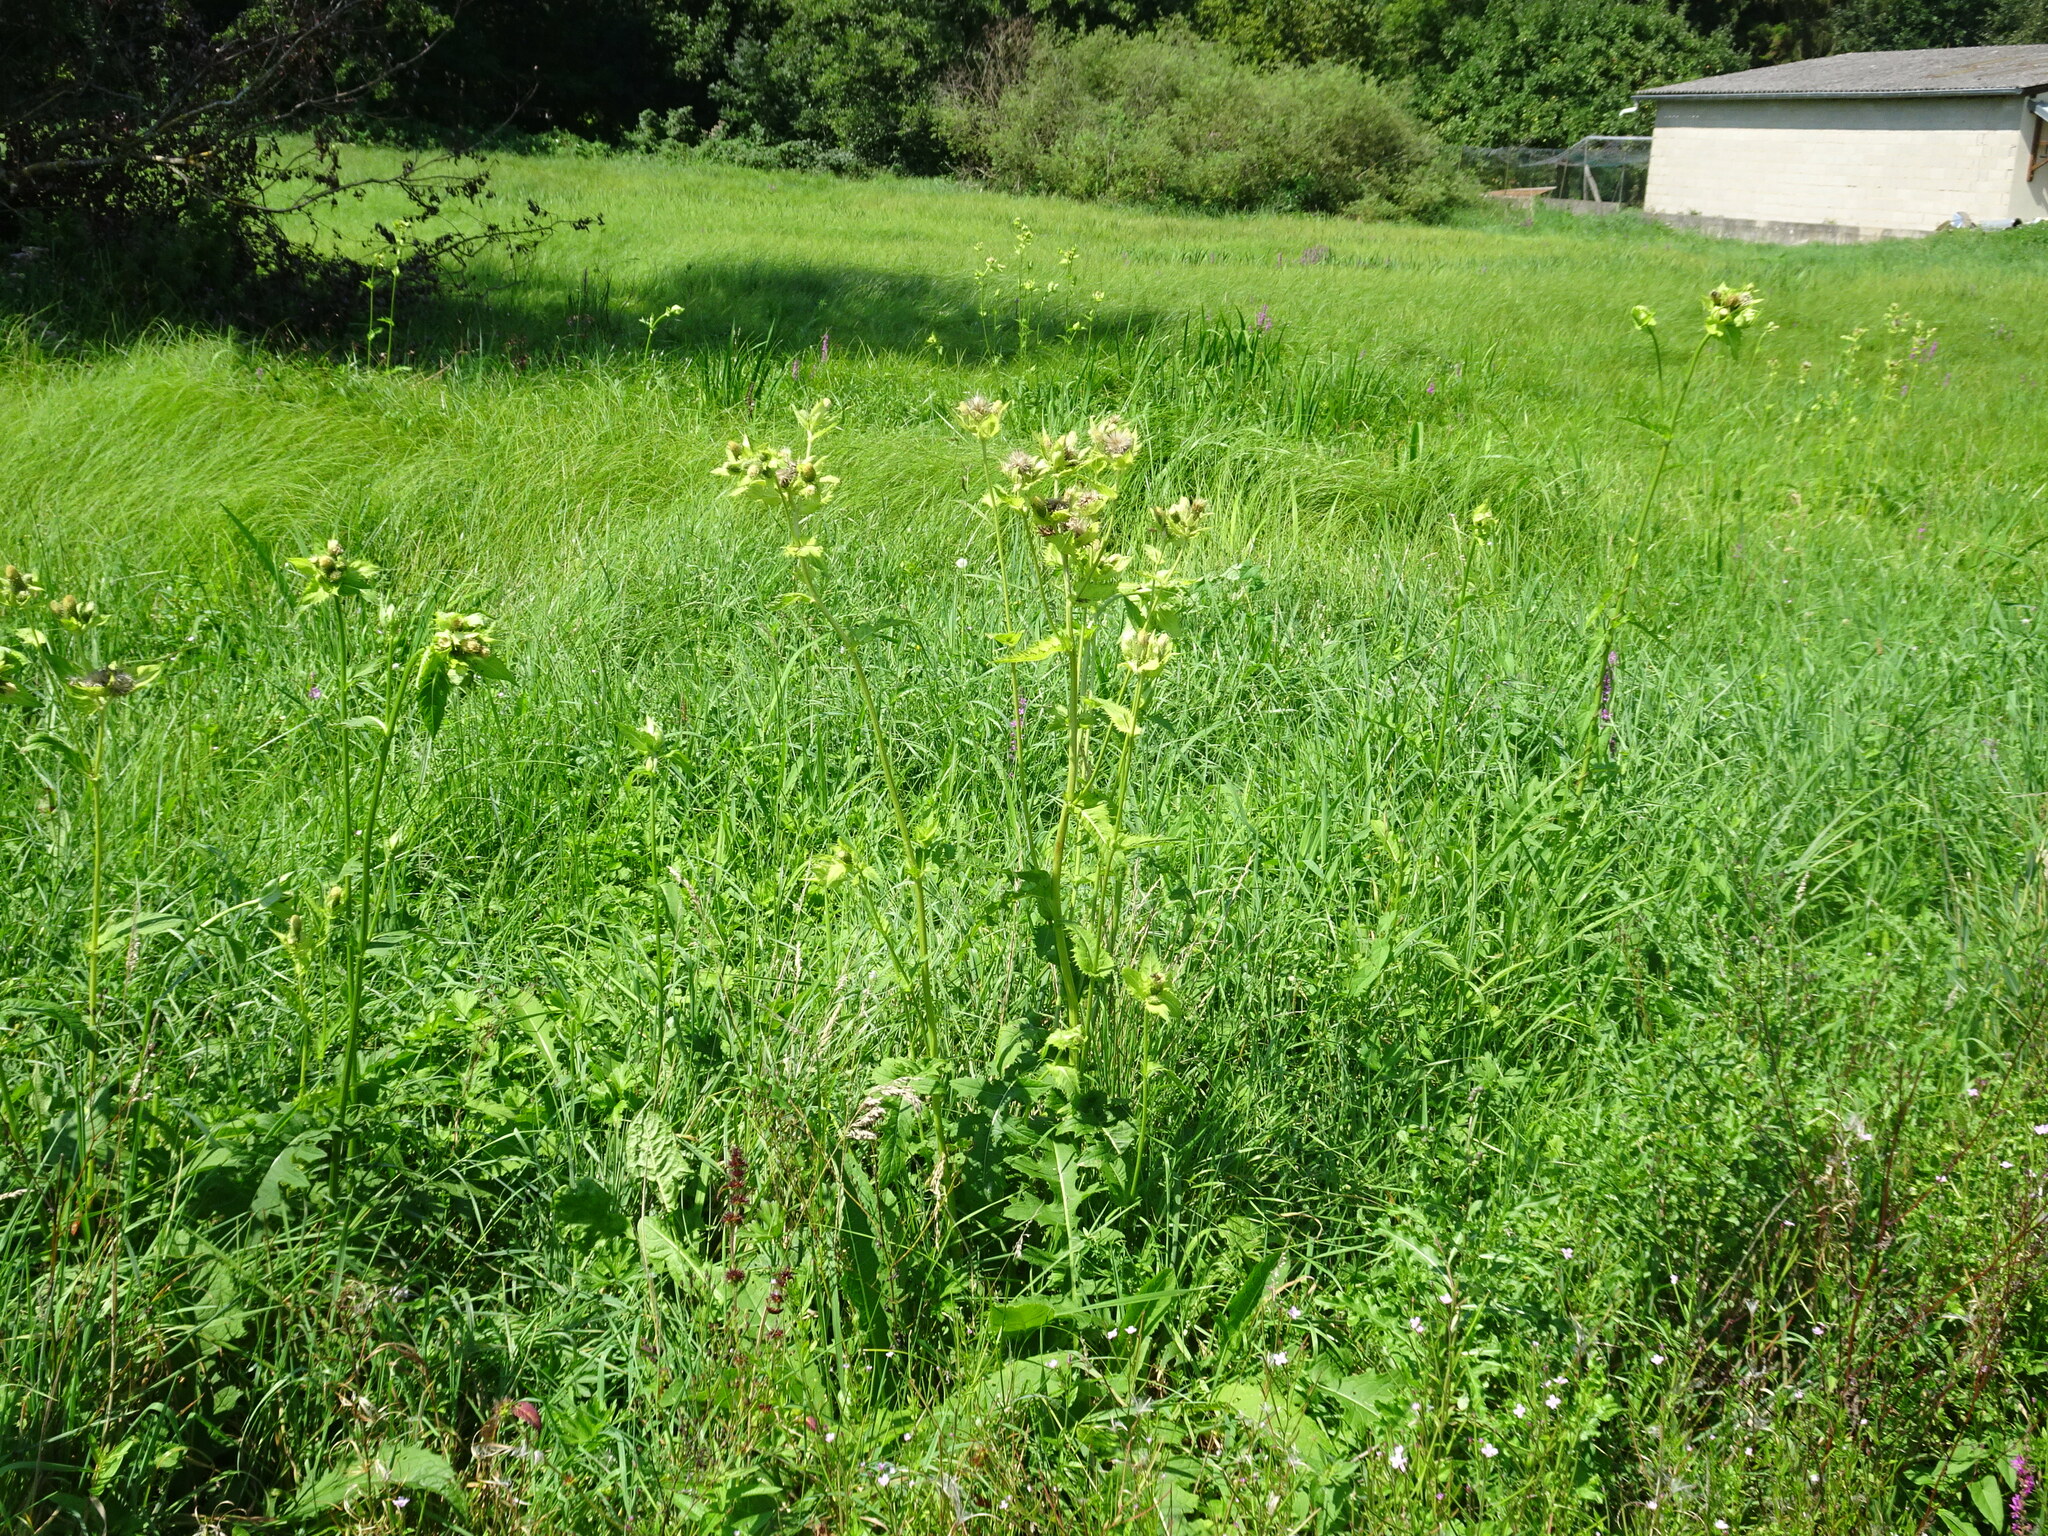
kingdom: Plantae
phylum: Tracheophyta
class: Magnoliopsida
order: Asterales
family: Asteraceae
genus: Cirsium
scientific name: Cirsium oleraceum
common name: Cabbage thistle
